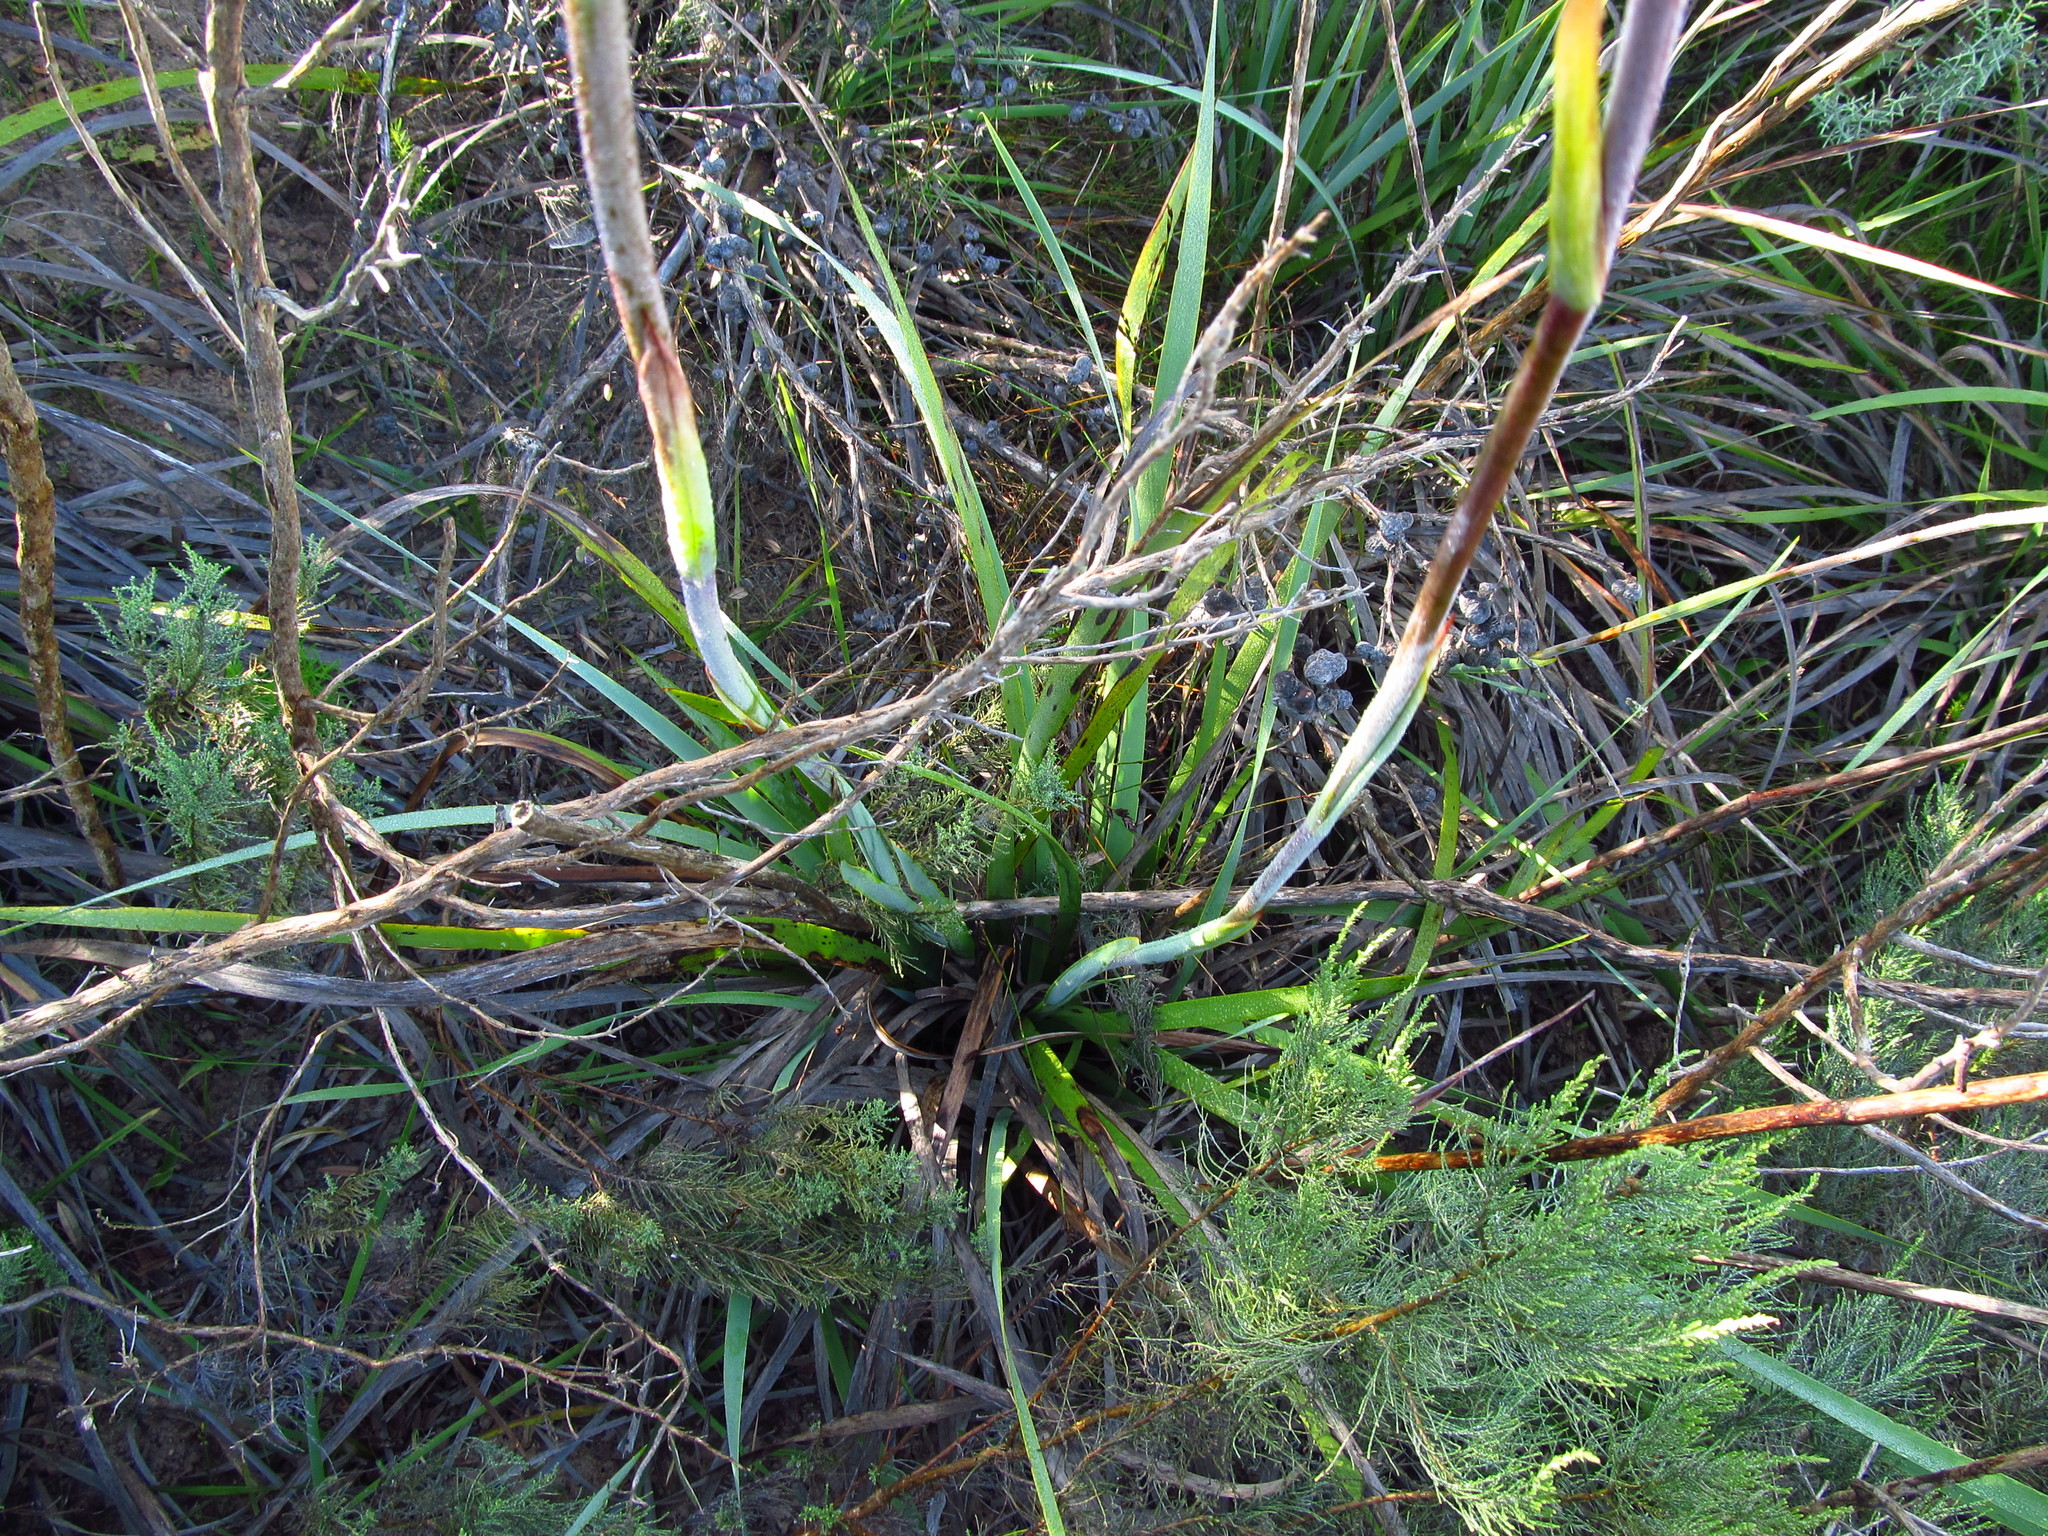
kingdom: Plantae
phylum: Tracheophyta
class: Liliopsida
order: Asparagales
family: Iridaceae
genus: Aristea
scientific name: Aristea capitata
